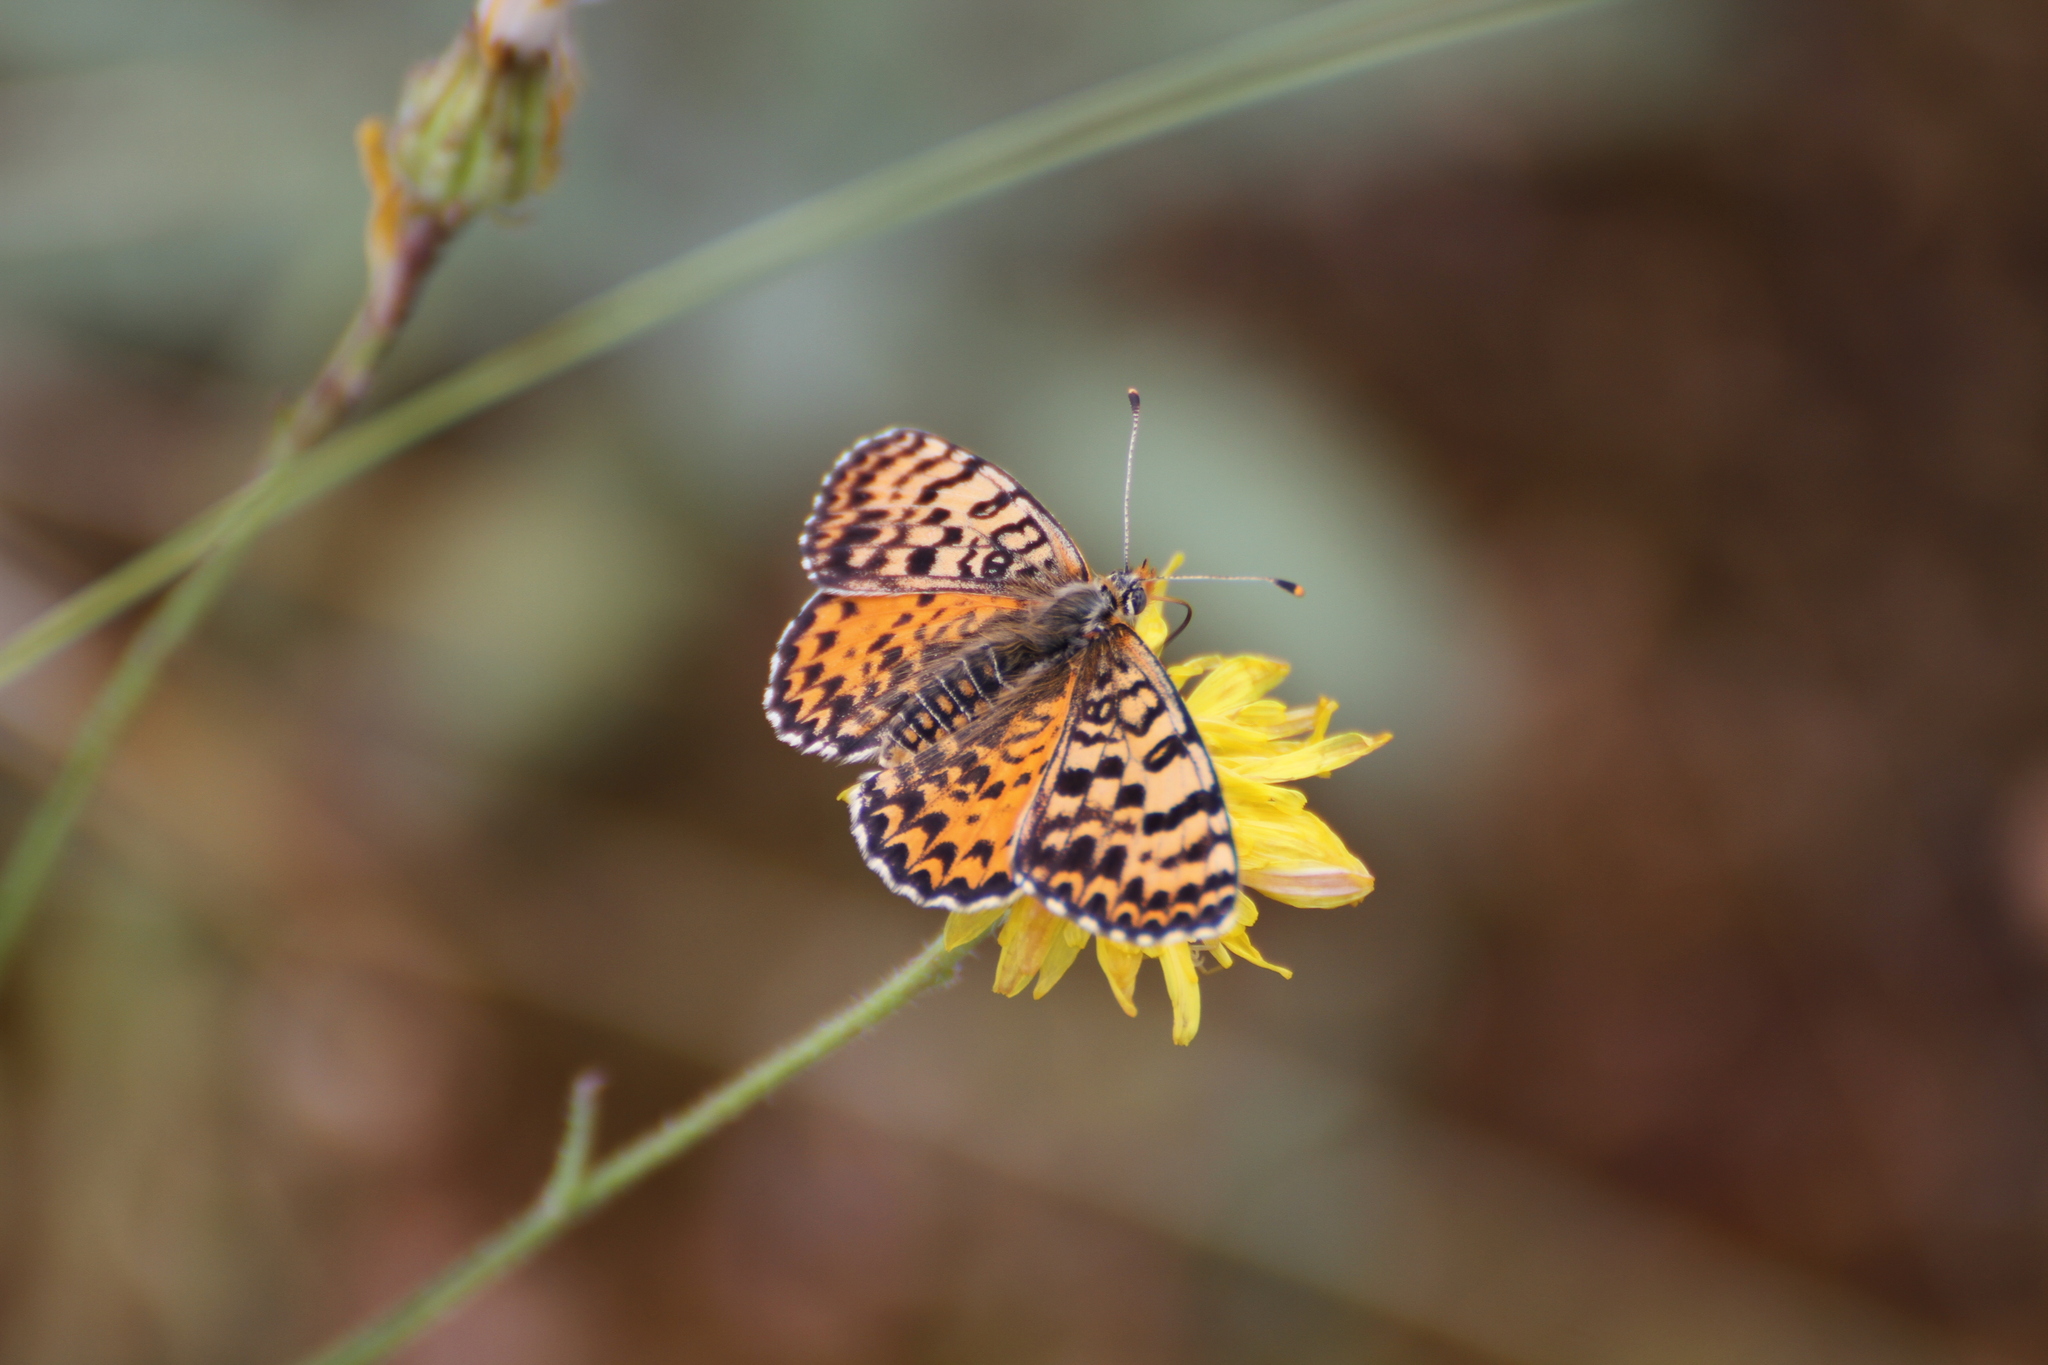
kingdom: Animalia
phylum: Arthropoda
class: Insecta
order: Lepidoptera
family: Nymphalidae
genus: Melitaea
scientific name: Melitaea didyma
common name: Spotted fritillary
